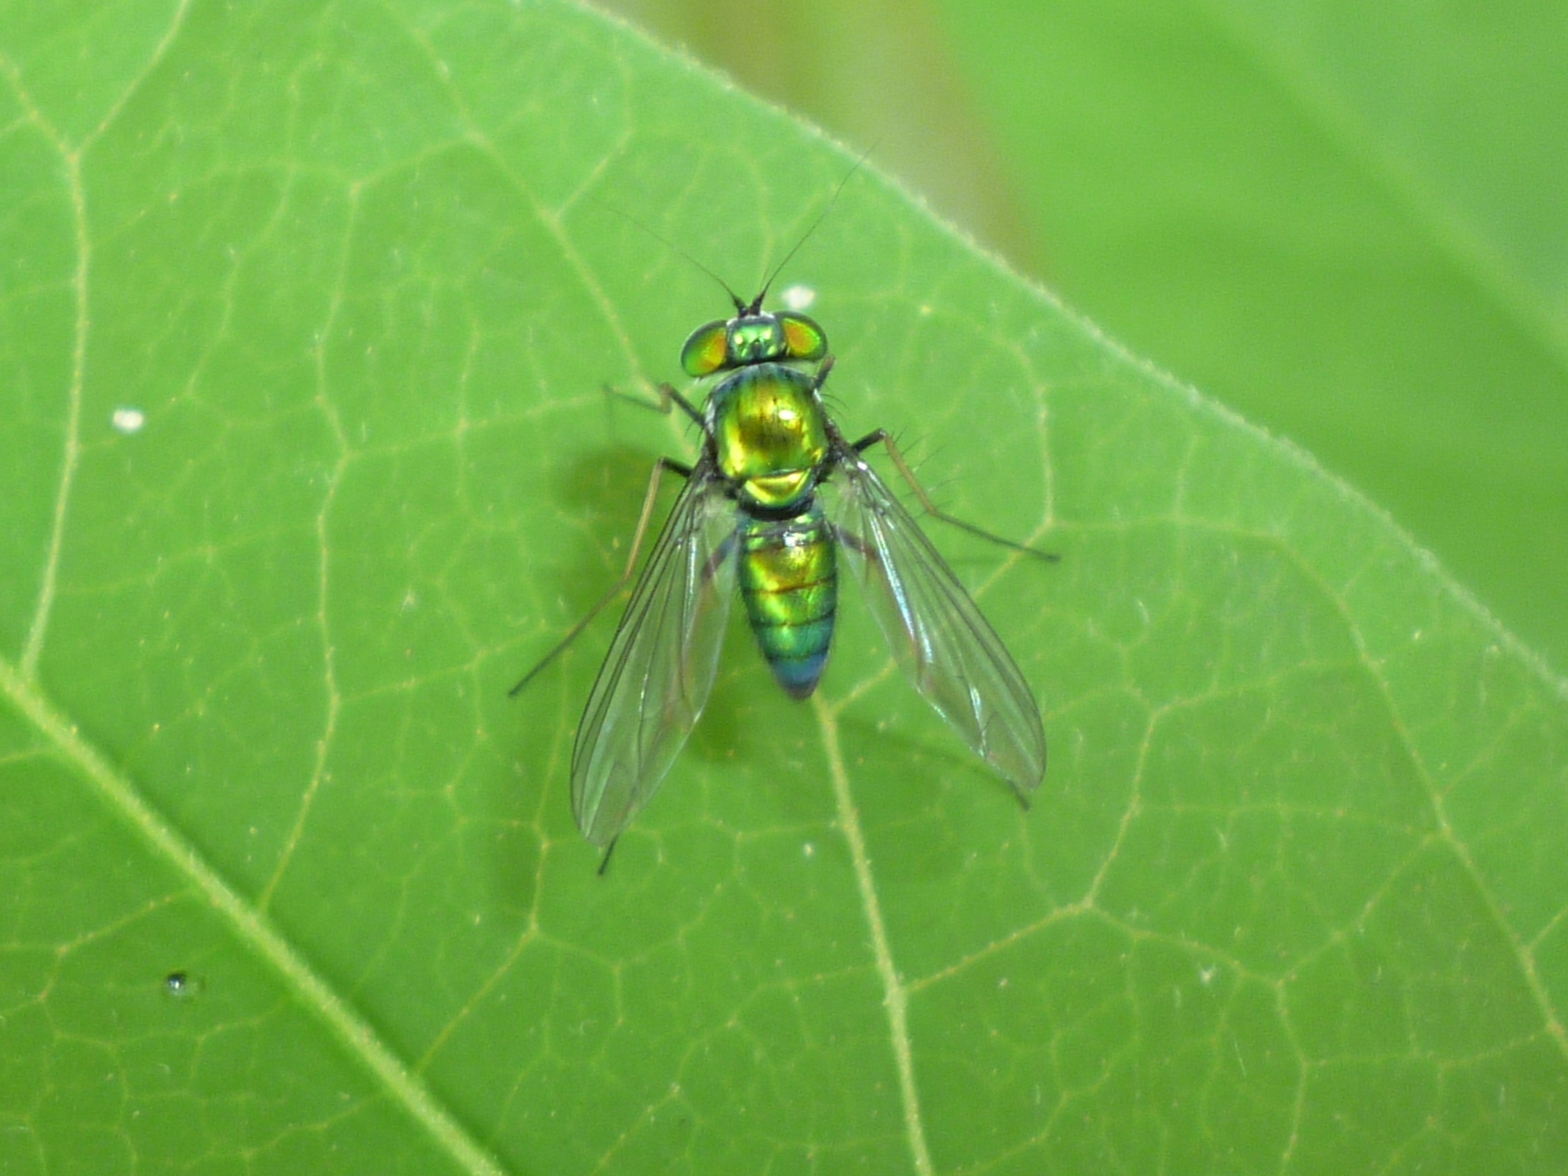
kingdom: Animalia
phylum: Arthropoda
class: Insecta
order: Diptera
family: Dolichopodidae
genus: Condylostylus
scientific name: Condylostylus
